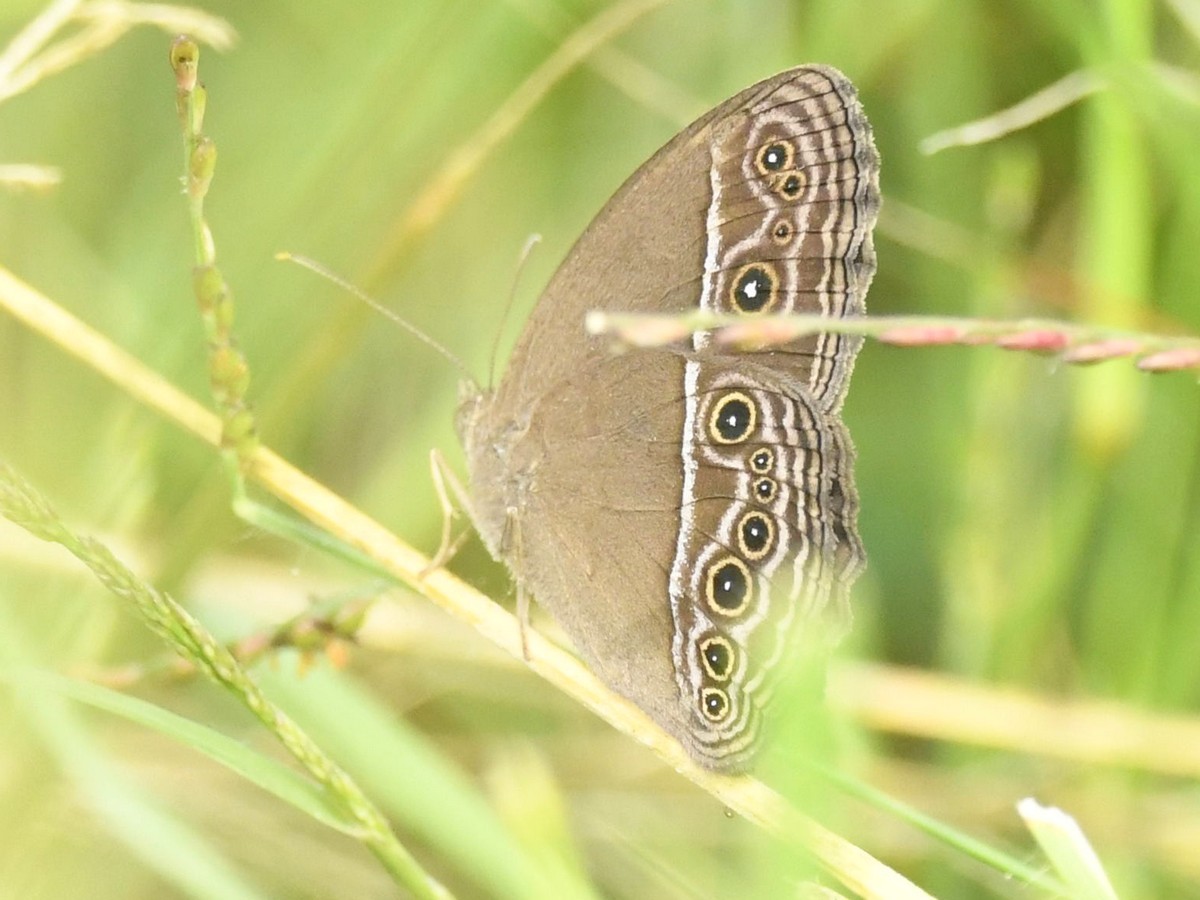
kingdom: Animalia
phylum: Arthropoda
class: Insecta
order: Lepidoptera
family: Nymphalidae
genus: Mycalesis
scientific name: Mycalesis perseus
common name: Dingy bushbrown
